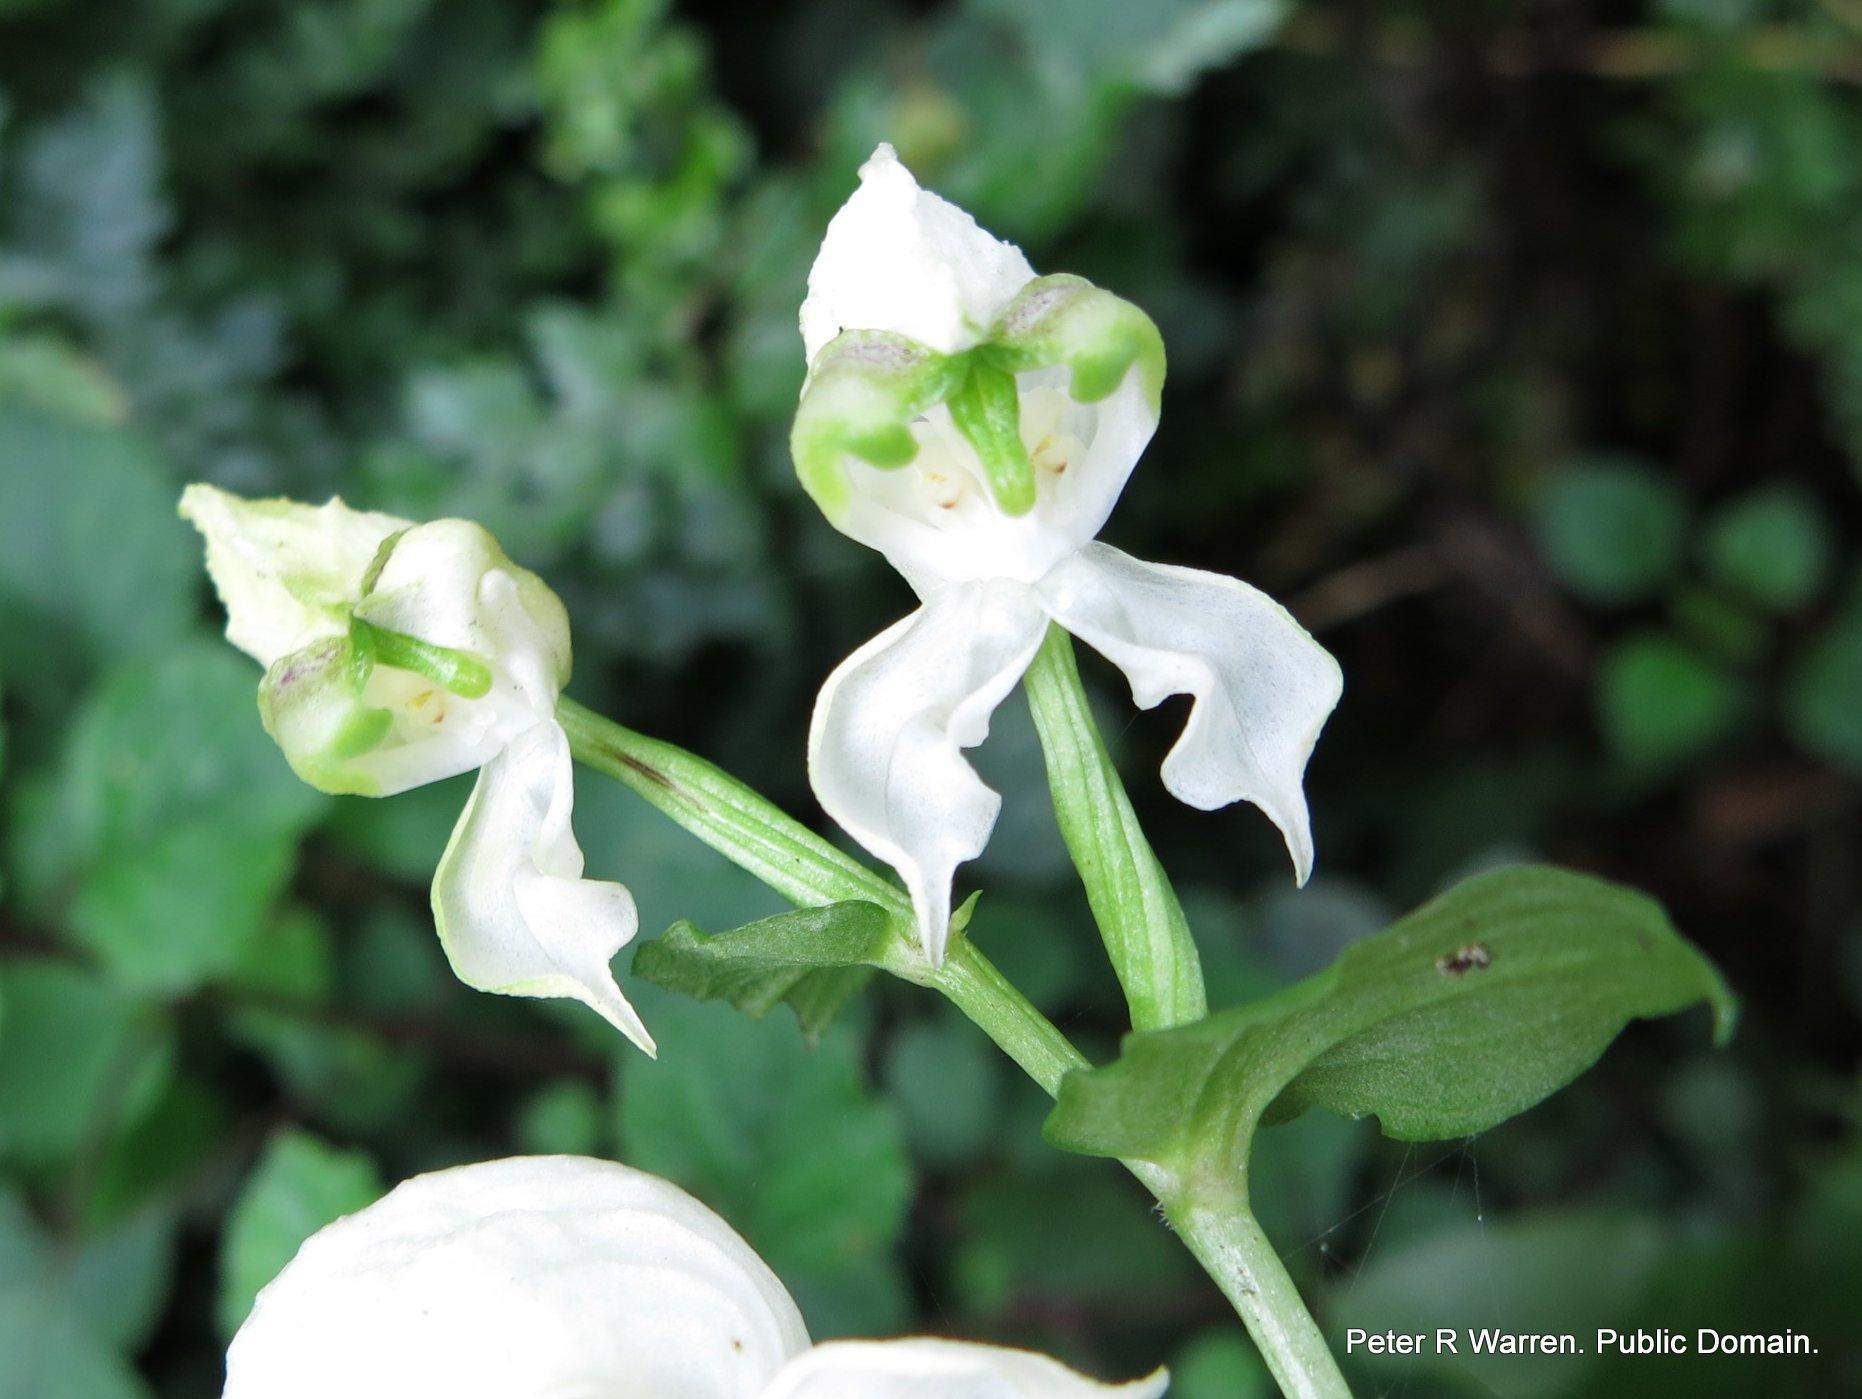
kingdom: Plantae
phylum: Tracheophyta
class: Liliopsida
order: Asparagales
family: Orchidaceae
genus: Disperis
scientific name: Disperis fanniniae
